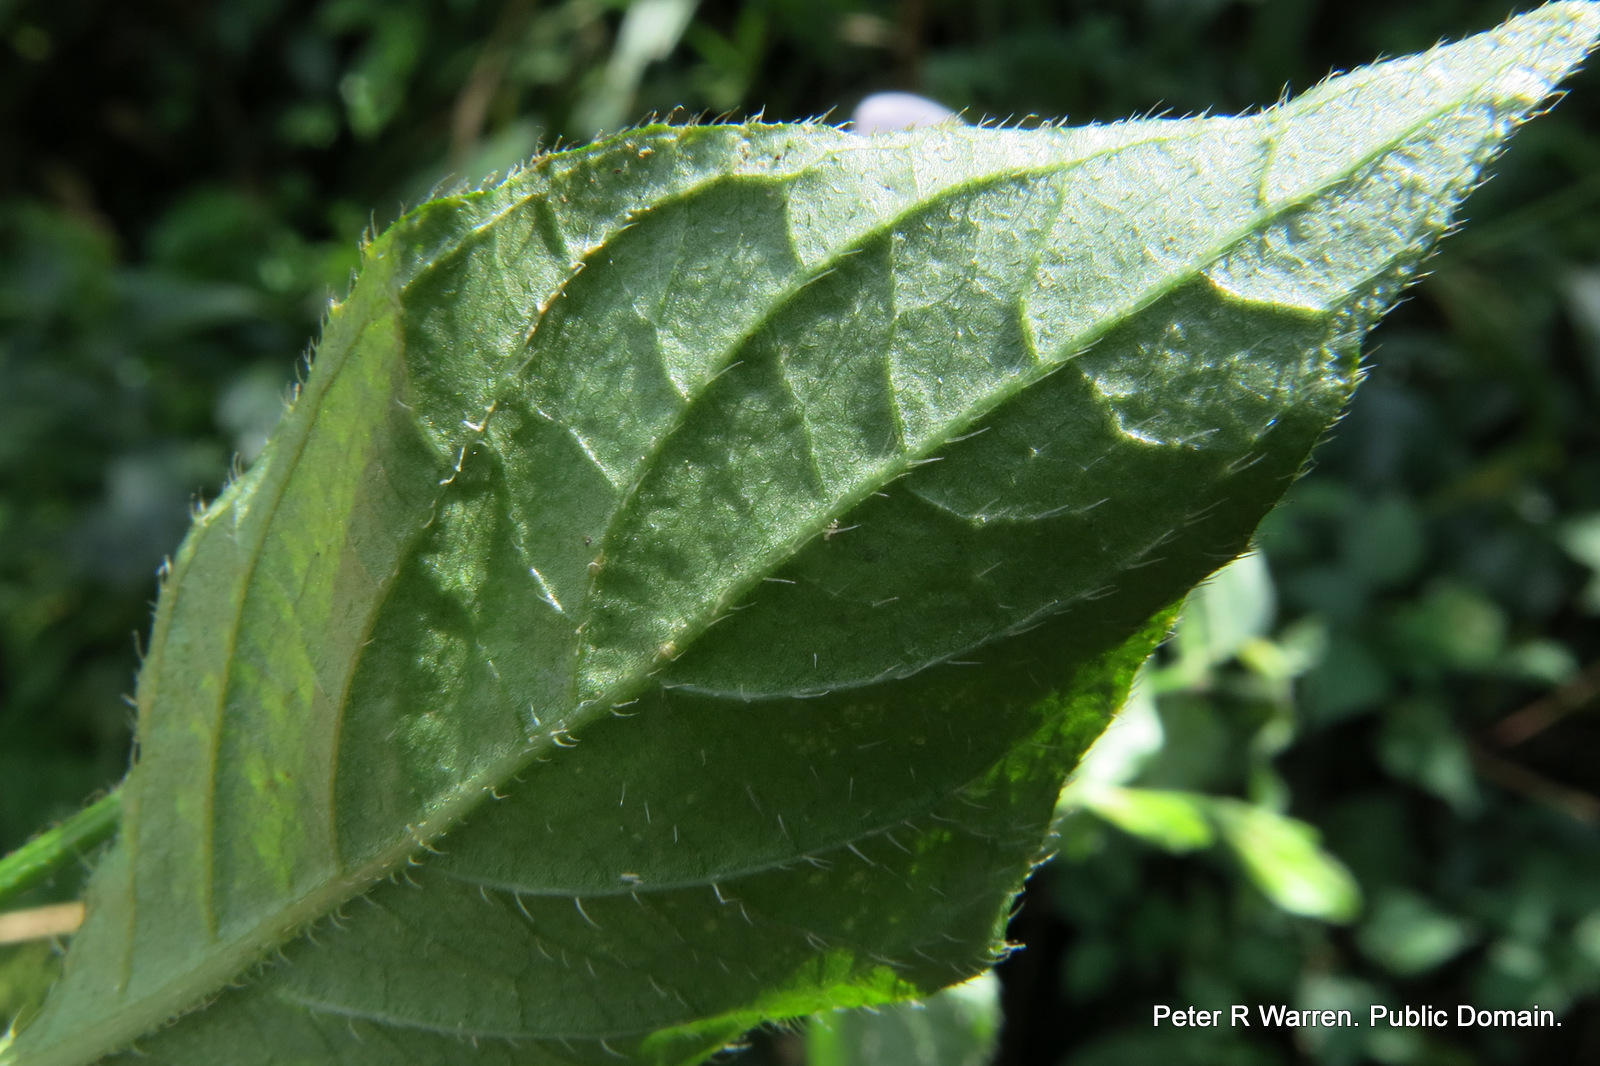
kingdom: Plantae
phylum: Tracheophyta
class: Magnoliopsida
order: Lamiales
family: Acanthaceae
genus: Hypoestes
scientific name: Hypoestes triflora
